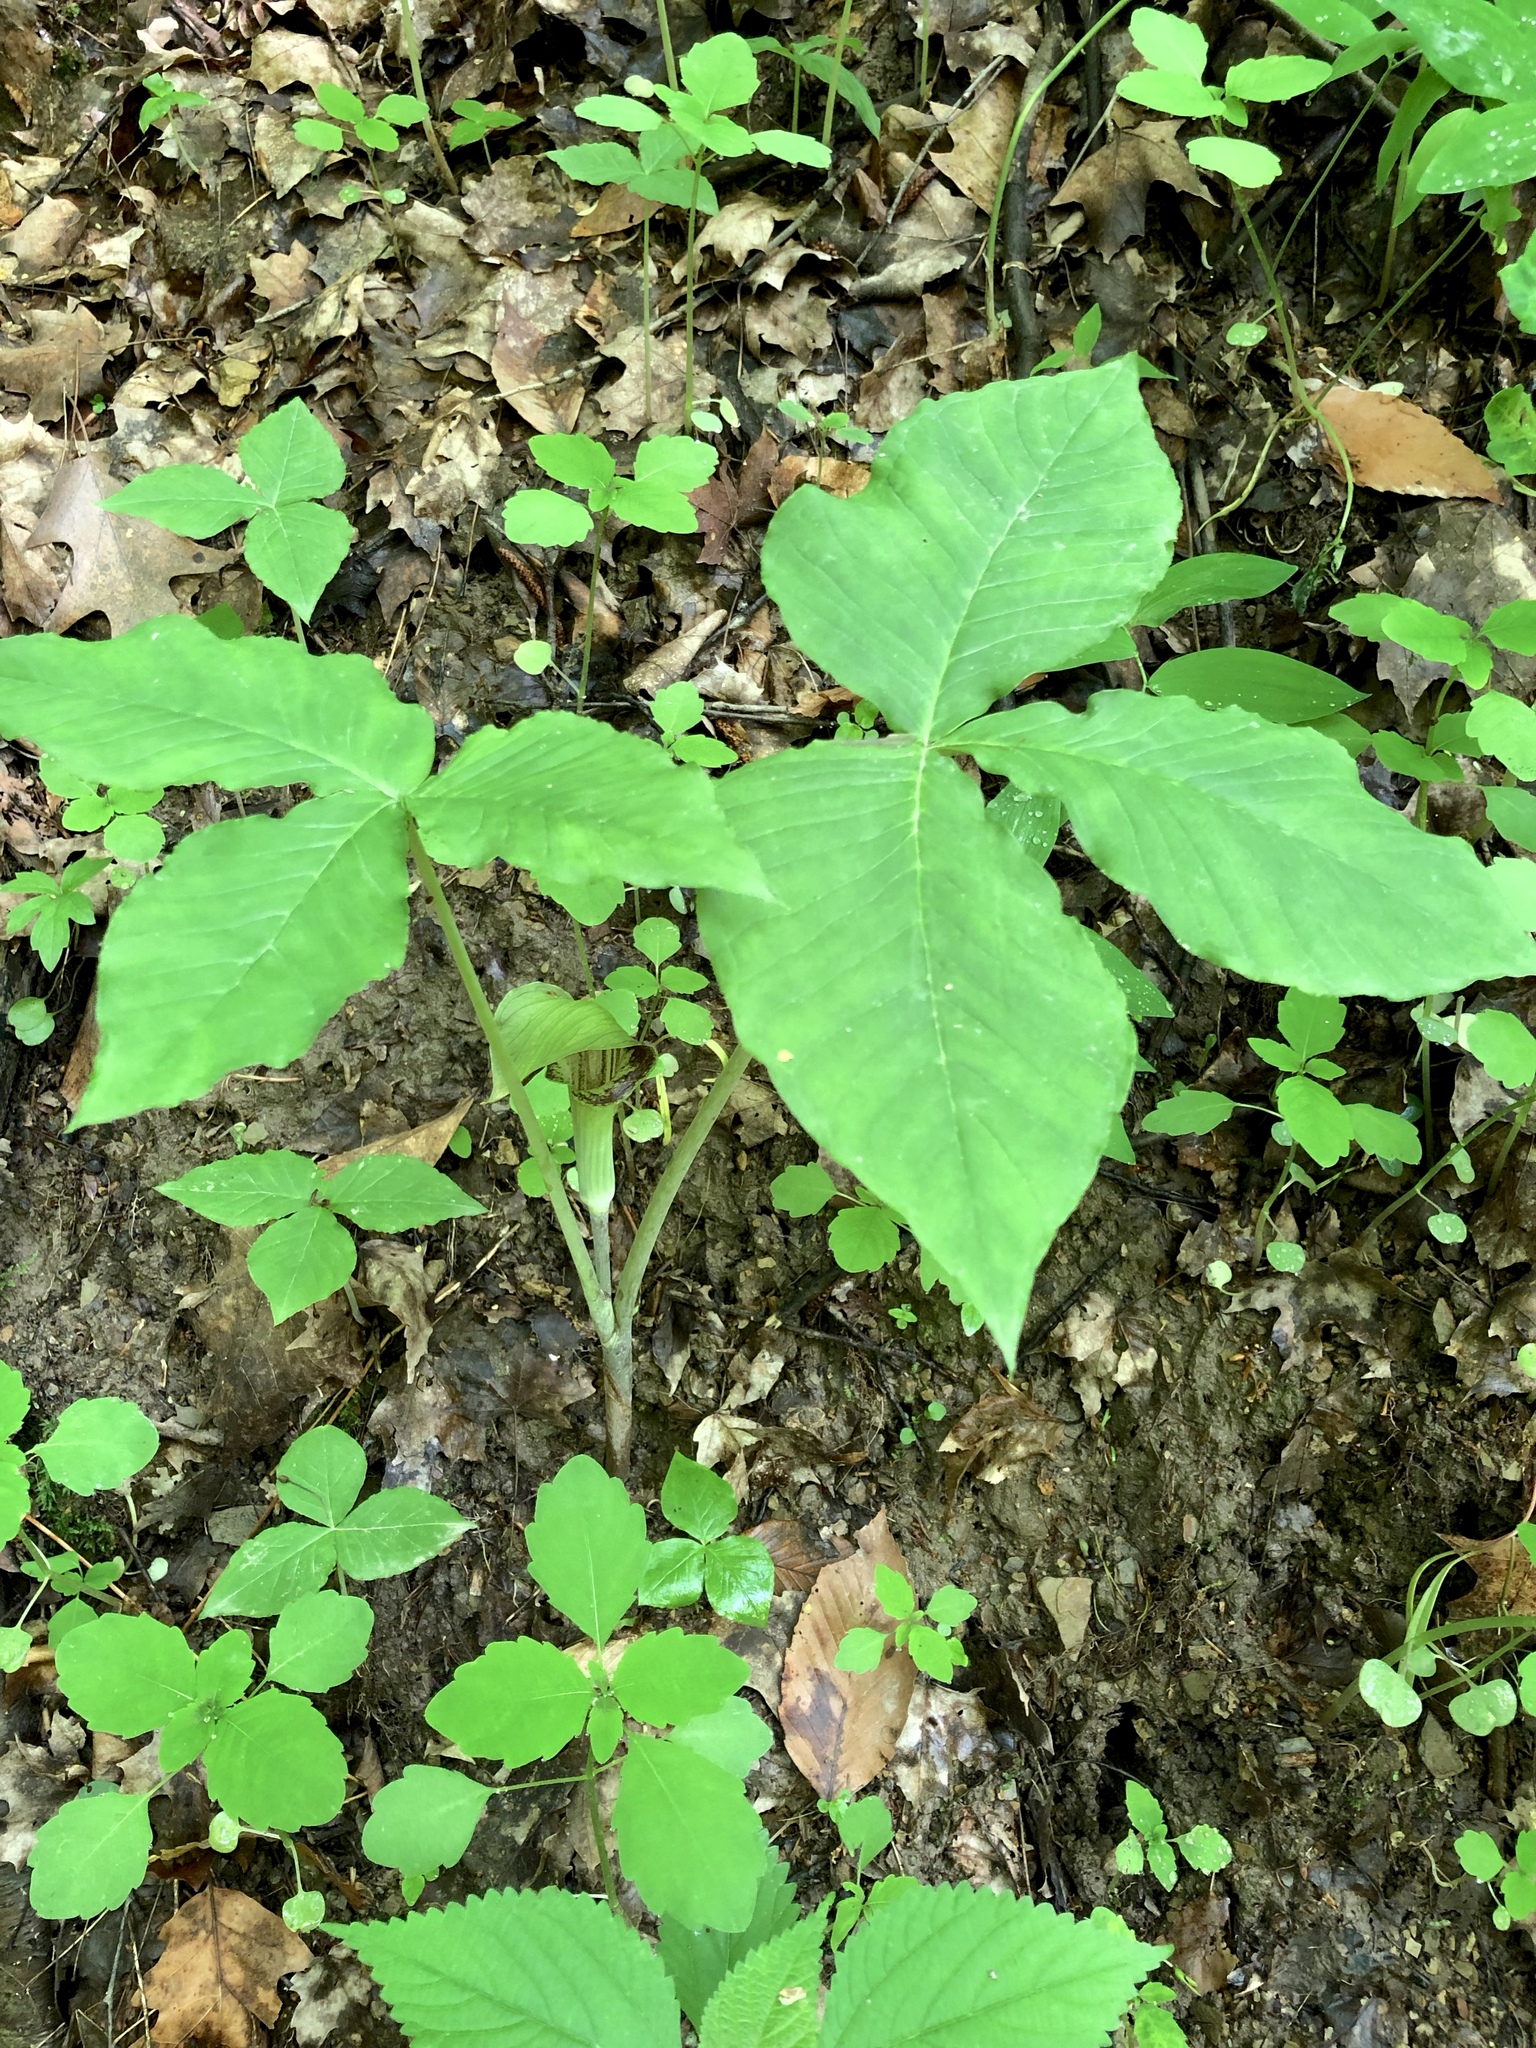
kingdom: Plantae
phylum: Tracheophyta
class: Liliopsida
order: Alismatales
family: Araceae
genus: Arisaema
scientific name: Arisaema triphyllum
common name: Jack-in-the-pulpit
